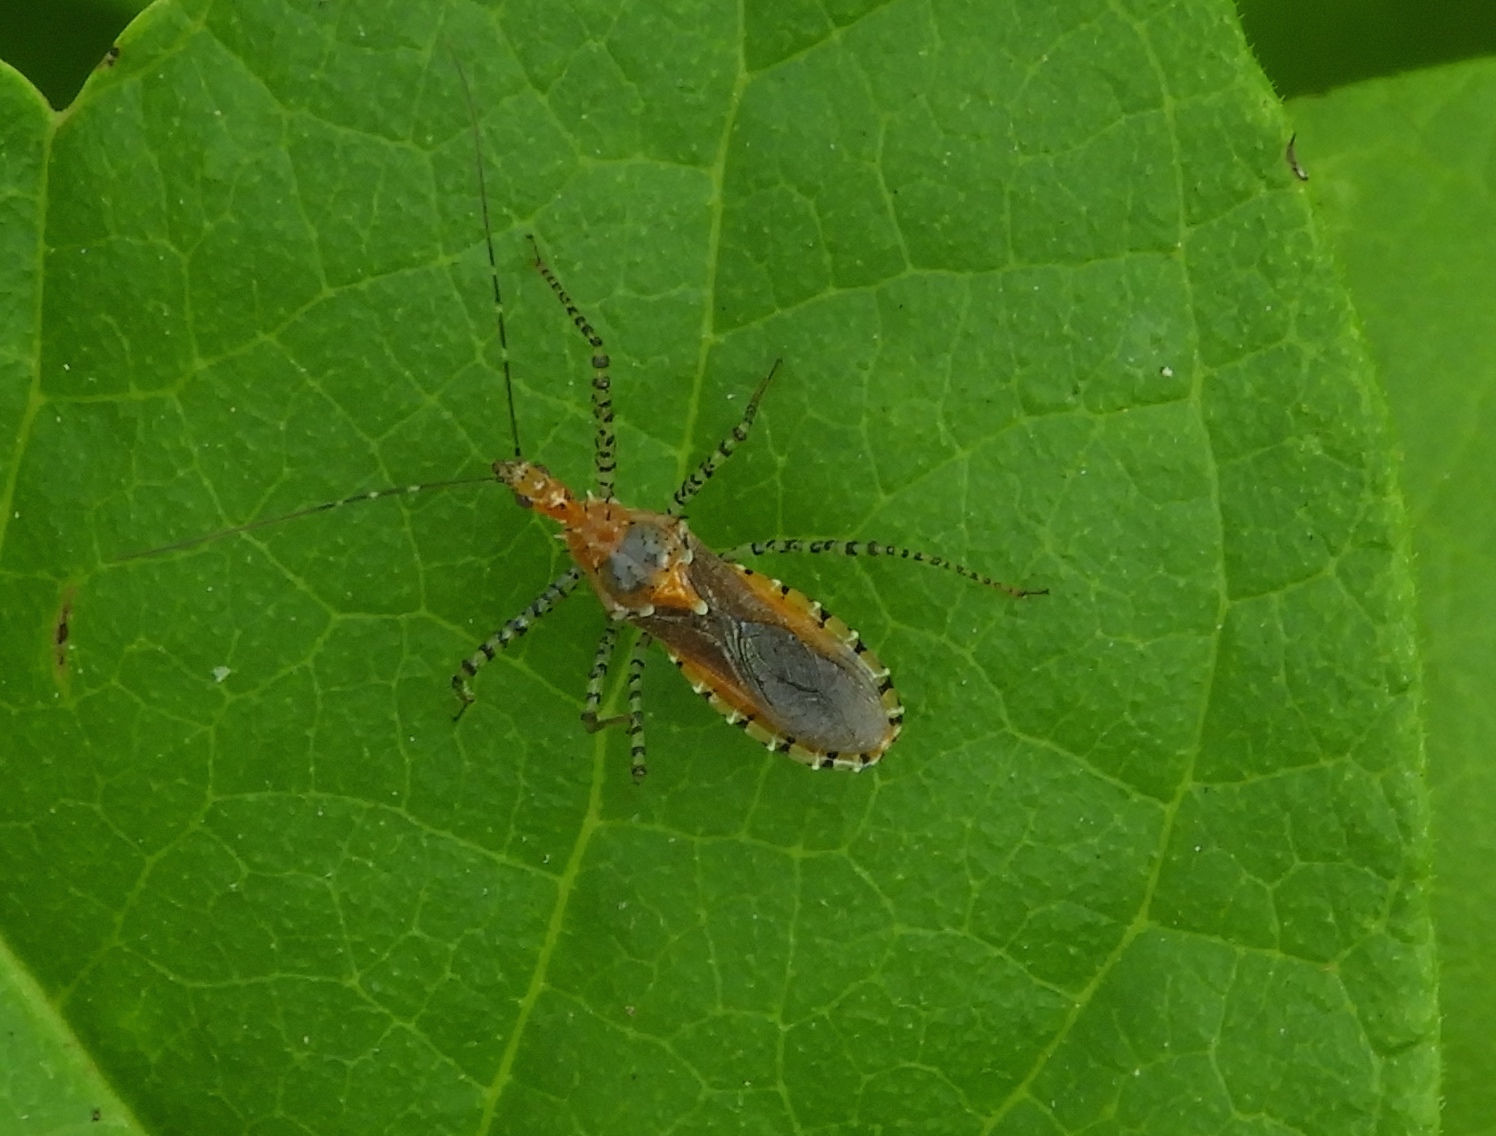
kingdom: Animalia
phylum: Arthropoda
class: Insecta
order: Hemiptera
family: Reduviidae
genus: Pselliopus
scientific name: Pselliopus
